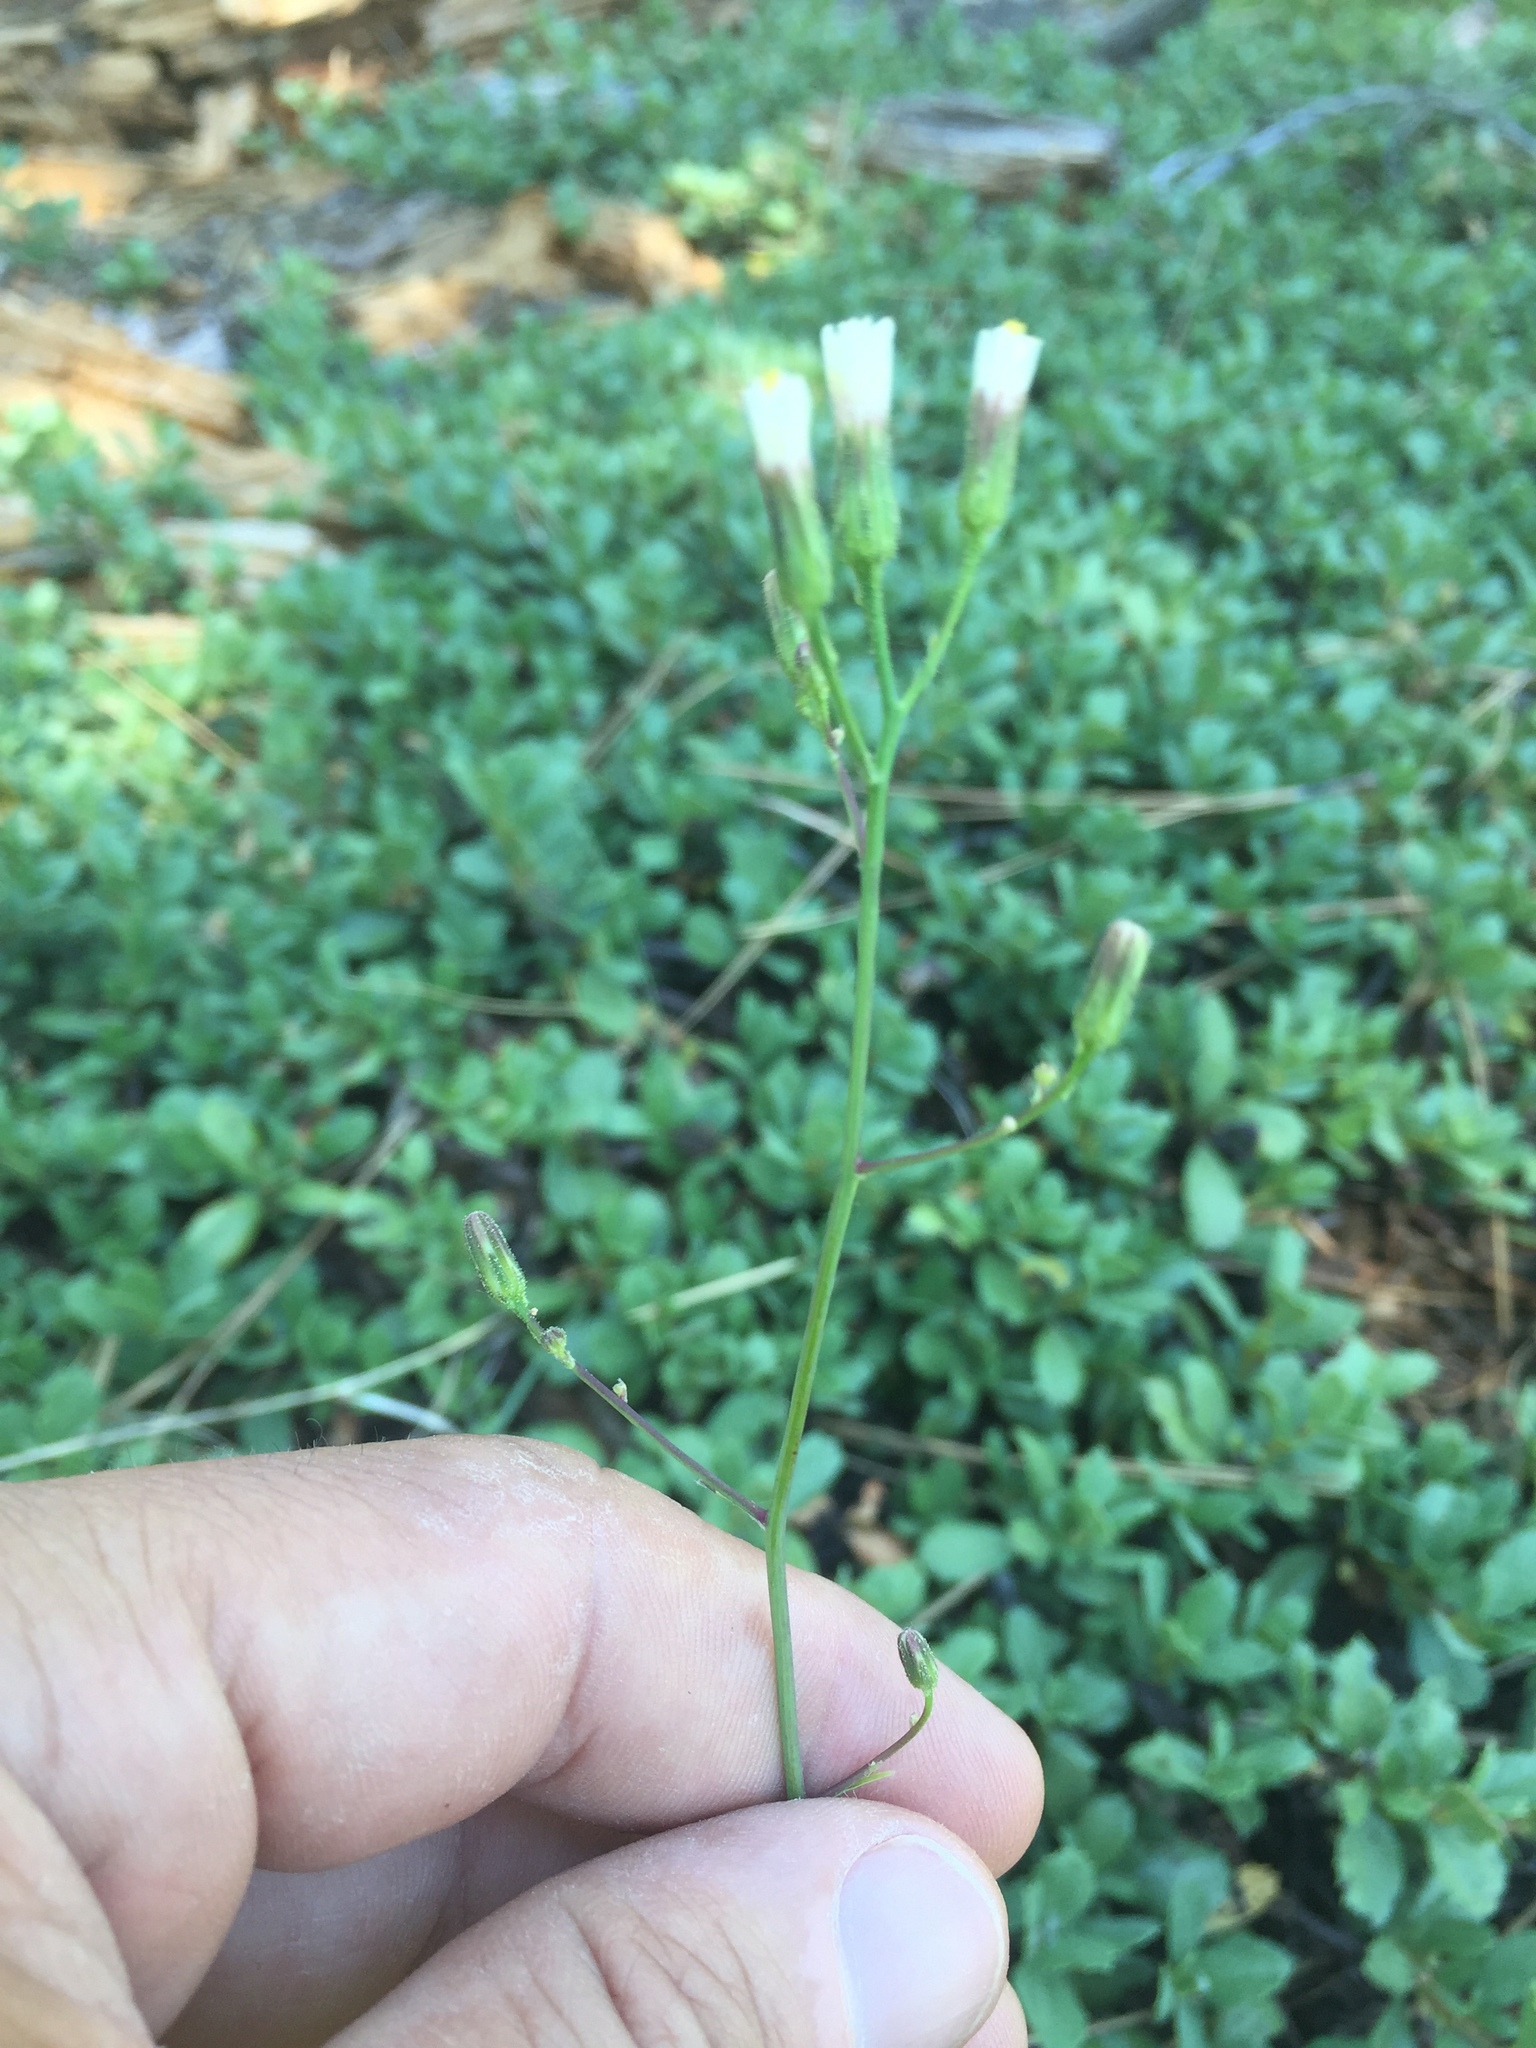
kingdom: Plantae
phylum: Tracheophyta
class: Magnoliopsida
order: Asterales
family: Asteraceae
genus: Hieracium
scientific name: Hieracium albiflorum
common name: White hawkweed
